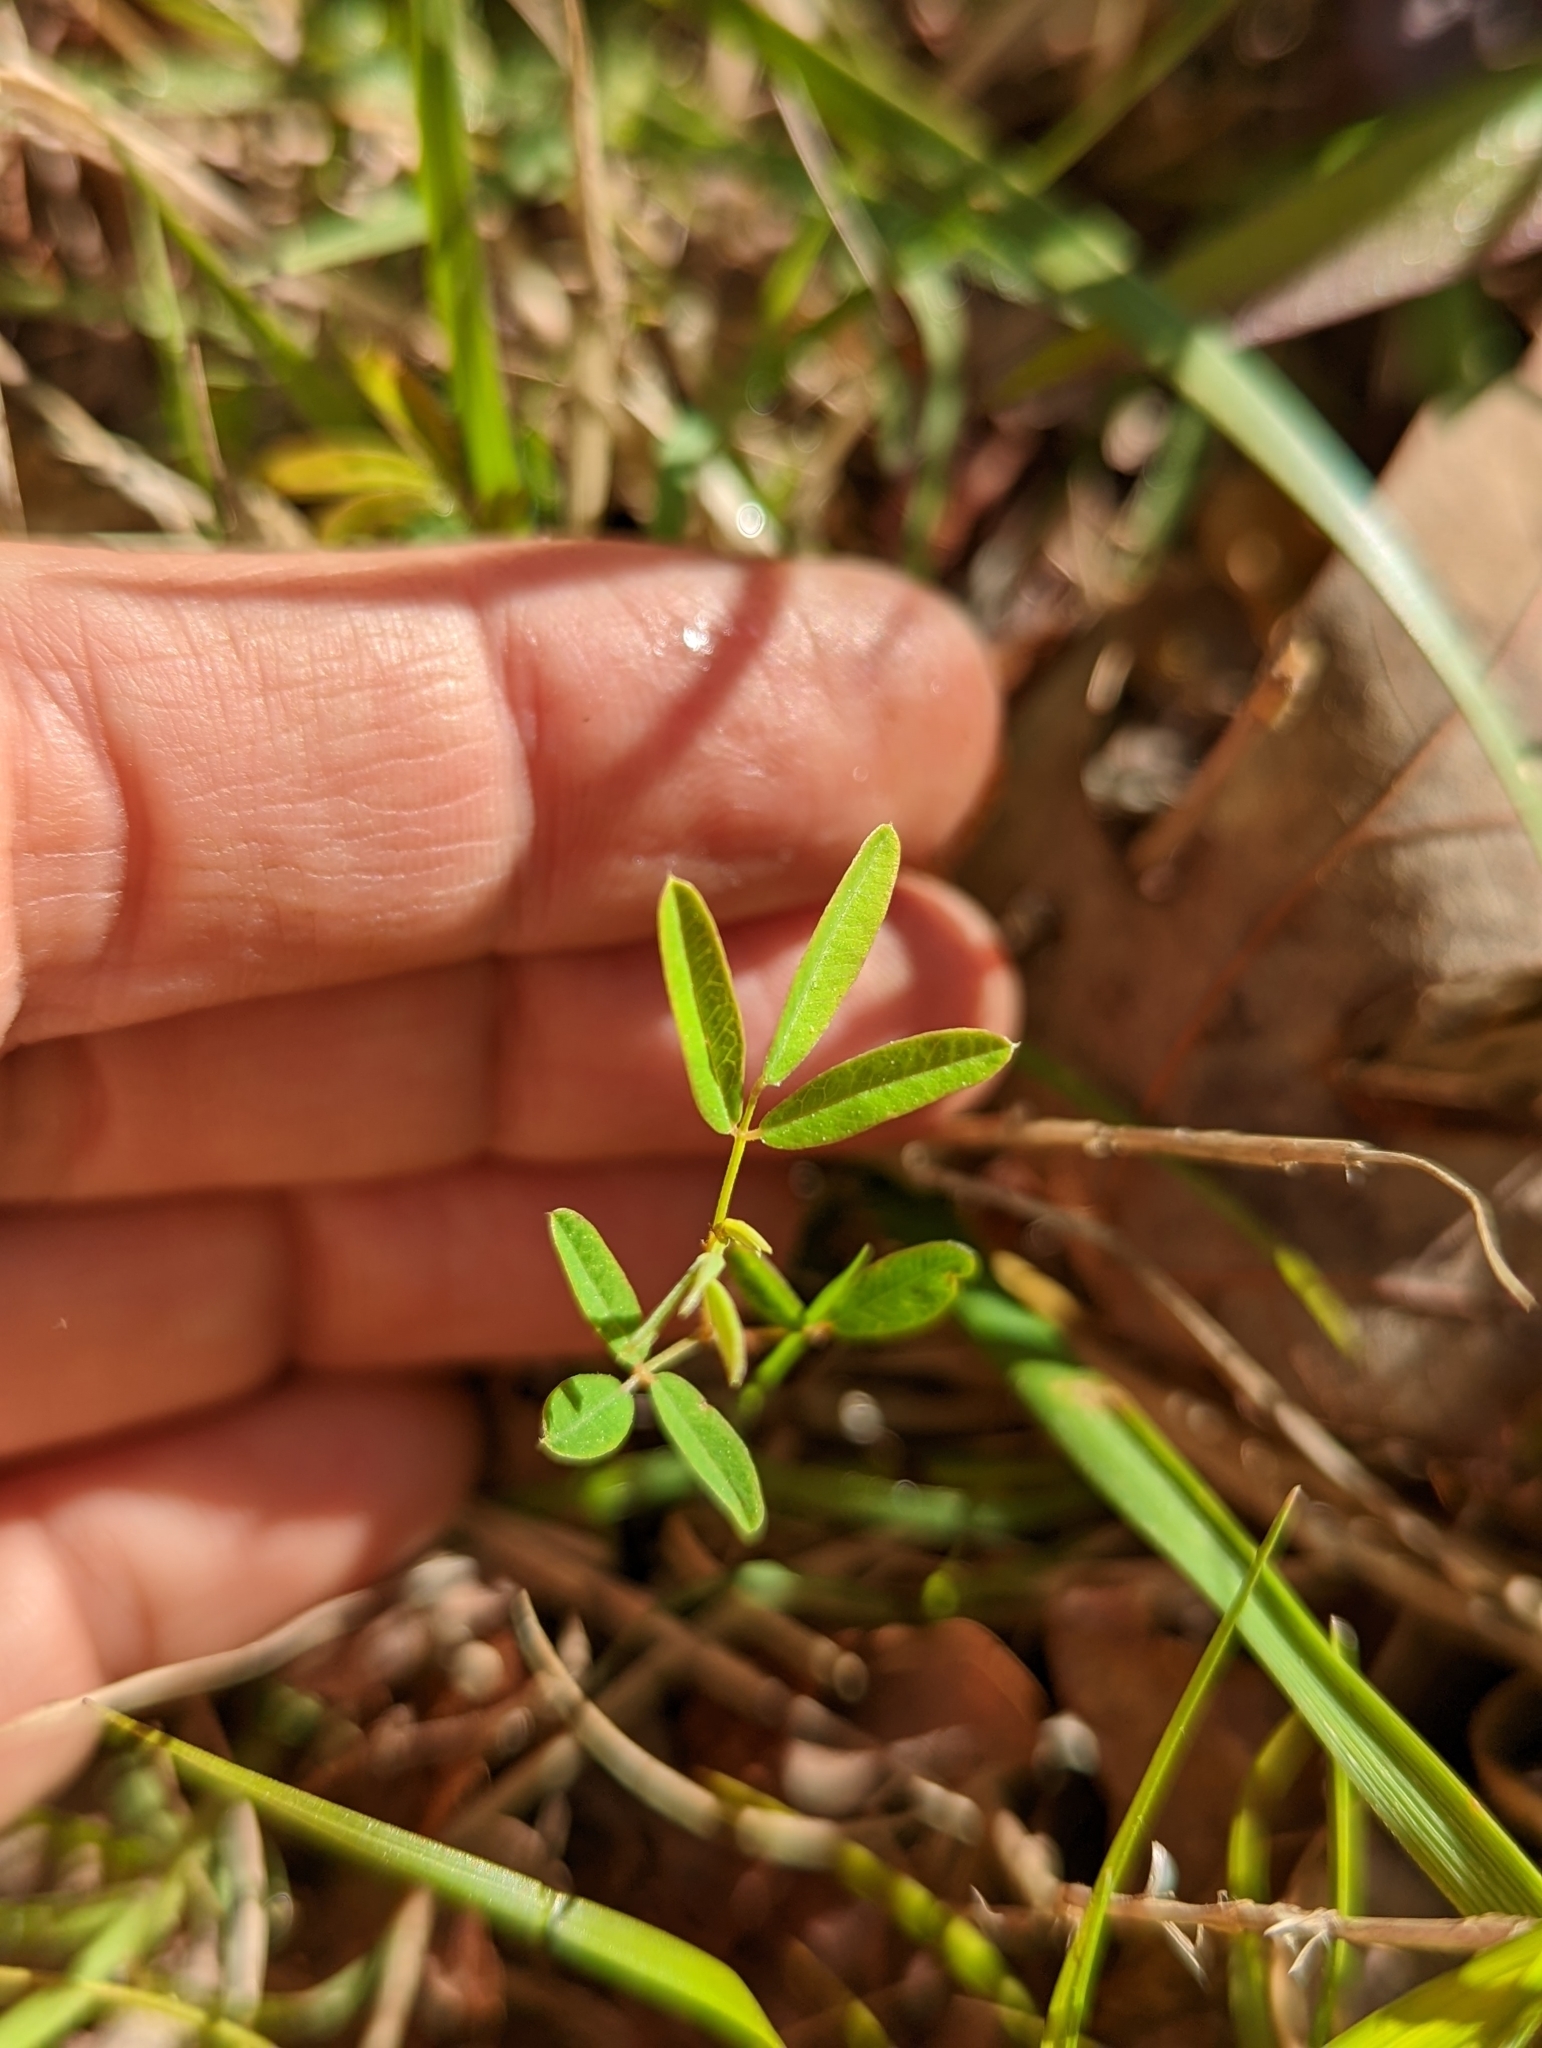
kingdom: Plantae
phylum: Tracheophyta
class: Magnoliopsida
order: Fabales
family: Fabaceae
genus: Lespedeza
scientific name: Lespedeza virginica
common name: Slender bush-clover
